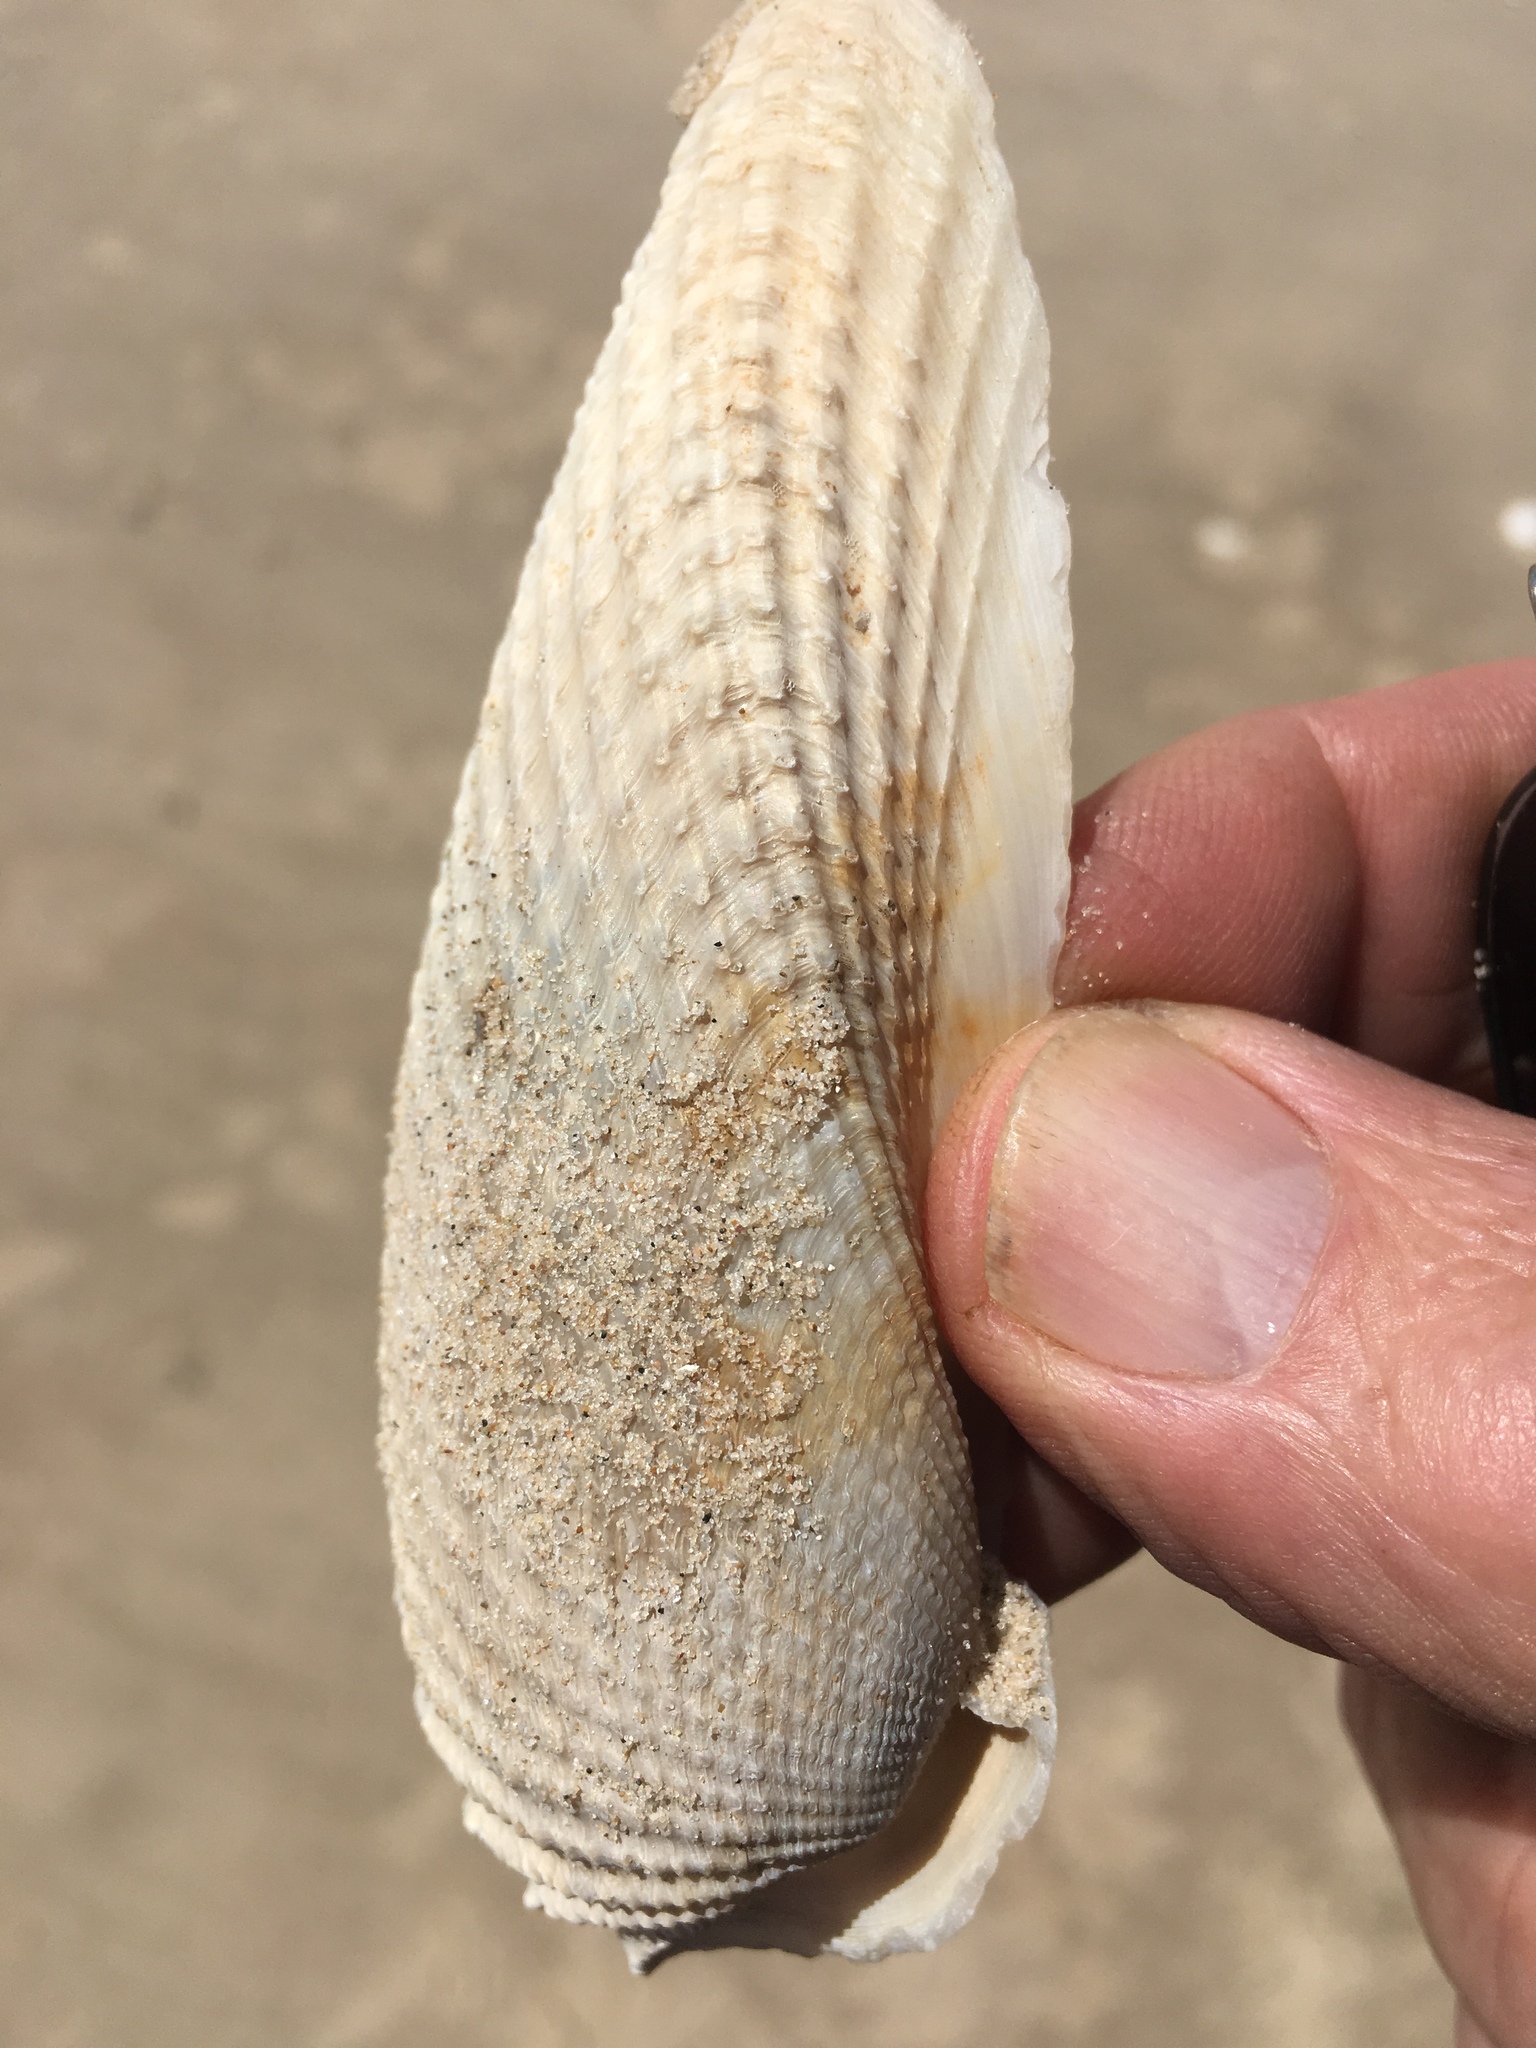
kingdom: Animalia
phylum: Mollusca
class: Bivalvia
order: Myida
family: Pholadidae
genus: Cyrtopleura
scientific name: Cyrtopleura costata
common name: Angel wing
